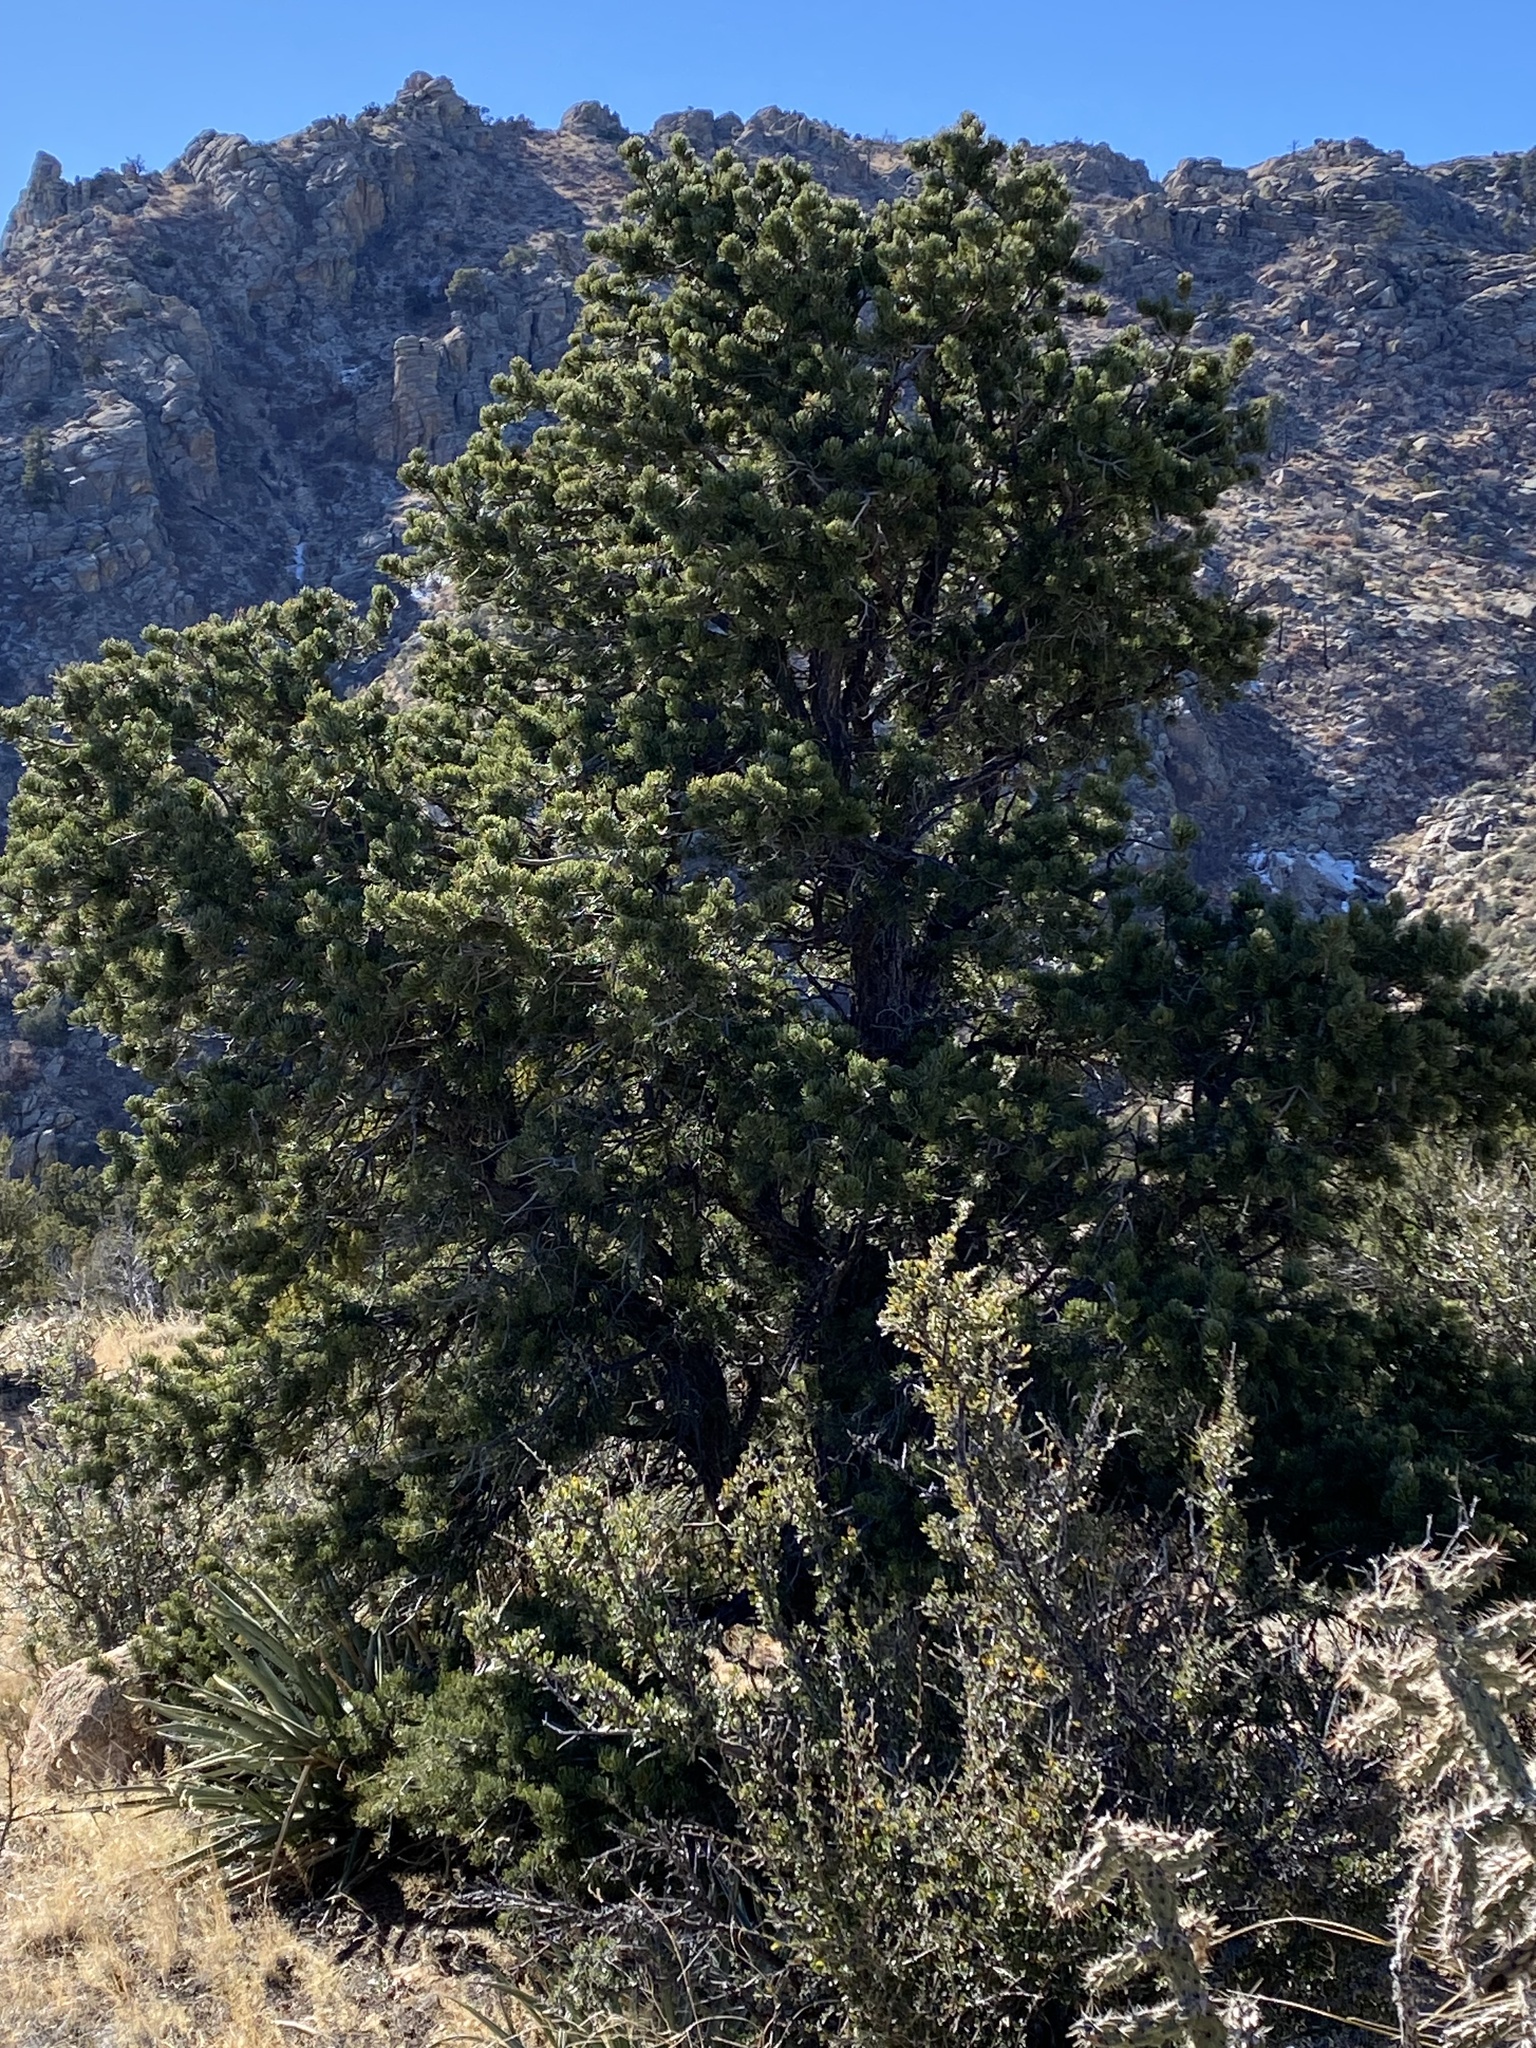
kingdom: Plantae
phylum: Tracheophyta
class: Pinopsida
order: Pinales
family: Pinaceae
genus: Pinus
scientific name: Pinus edulis
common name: Colorado pinyon
